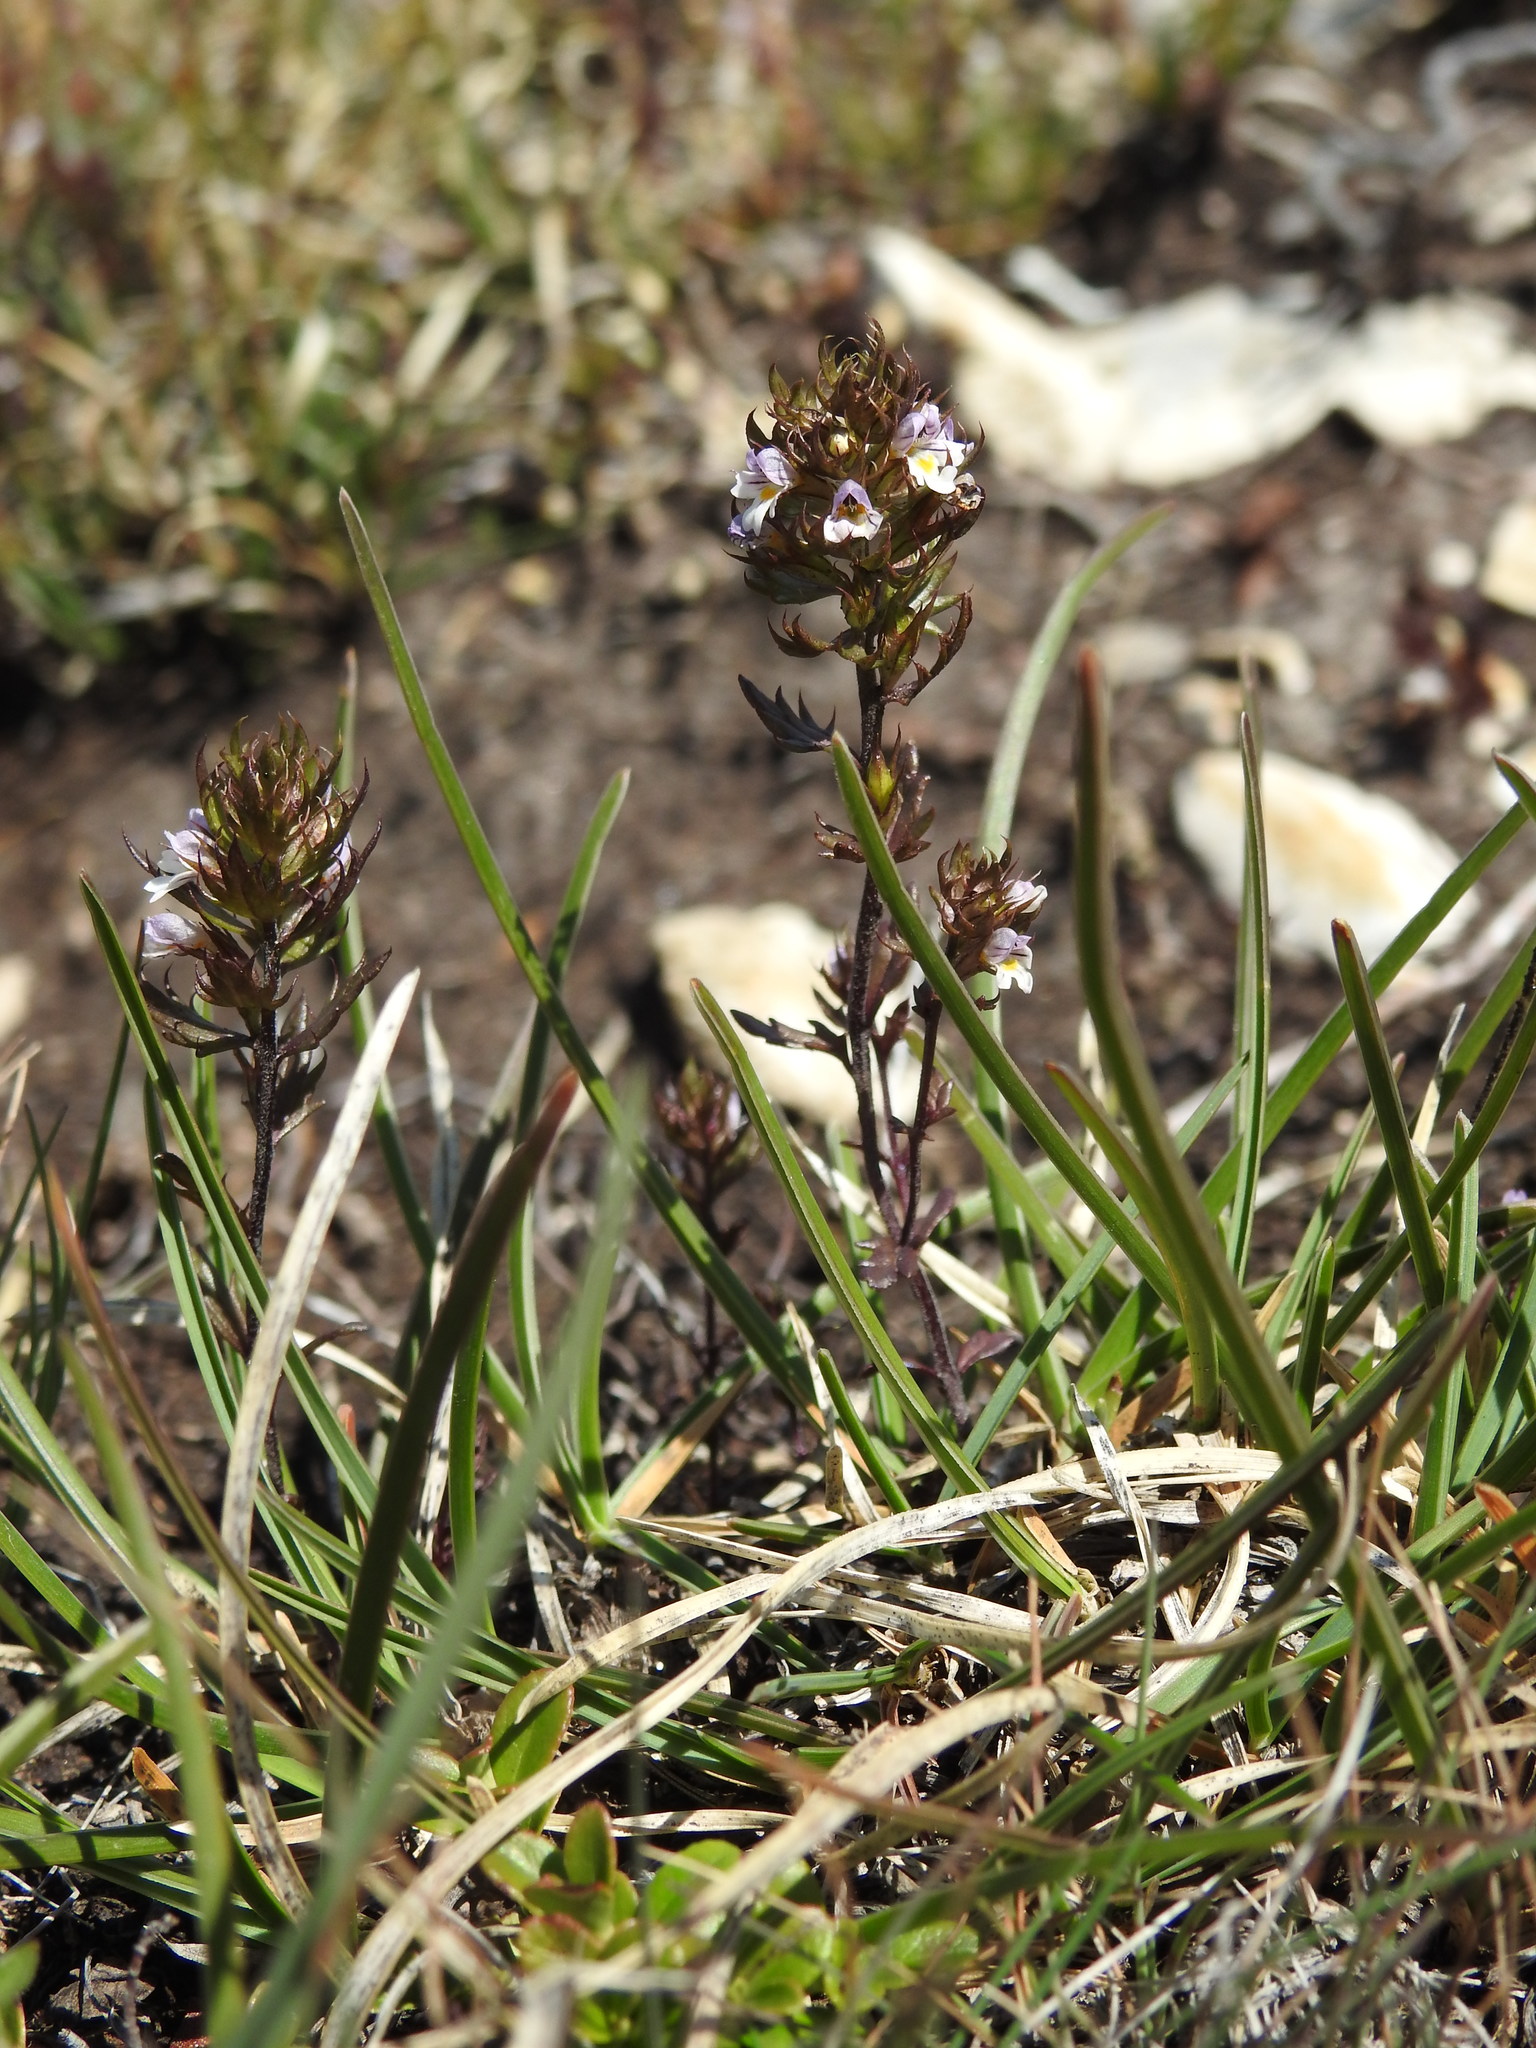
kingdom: Plantae
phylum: Tracheophyta
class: Magnoliopsida
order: Lamiales
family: Orobanchaceae
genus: Euphrasia
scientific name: Euphrasia salisburgensis
